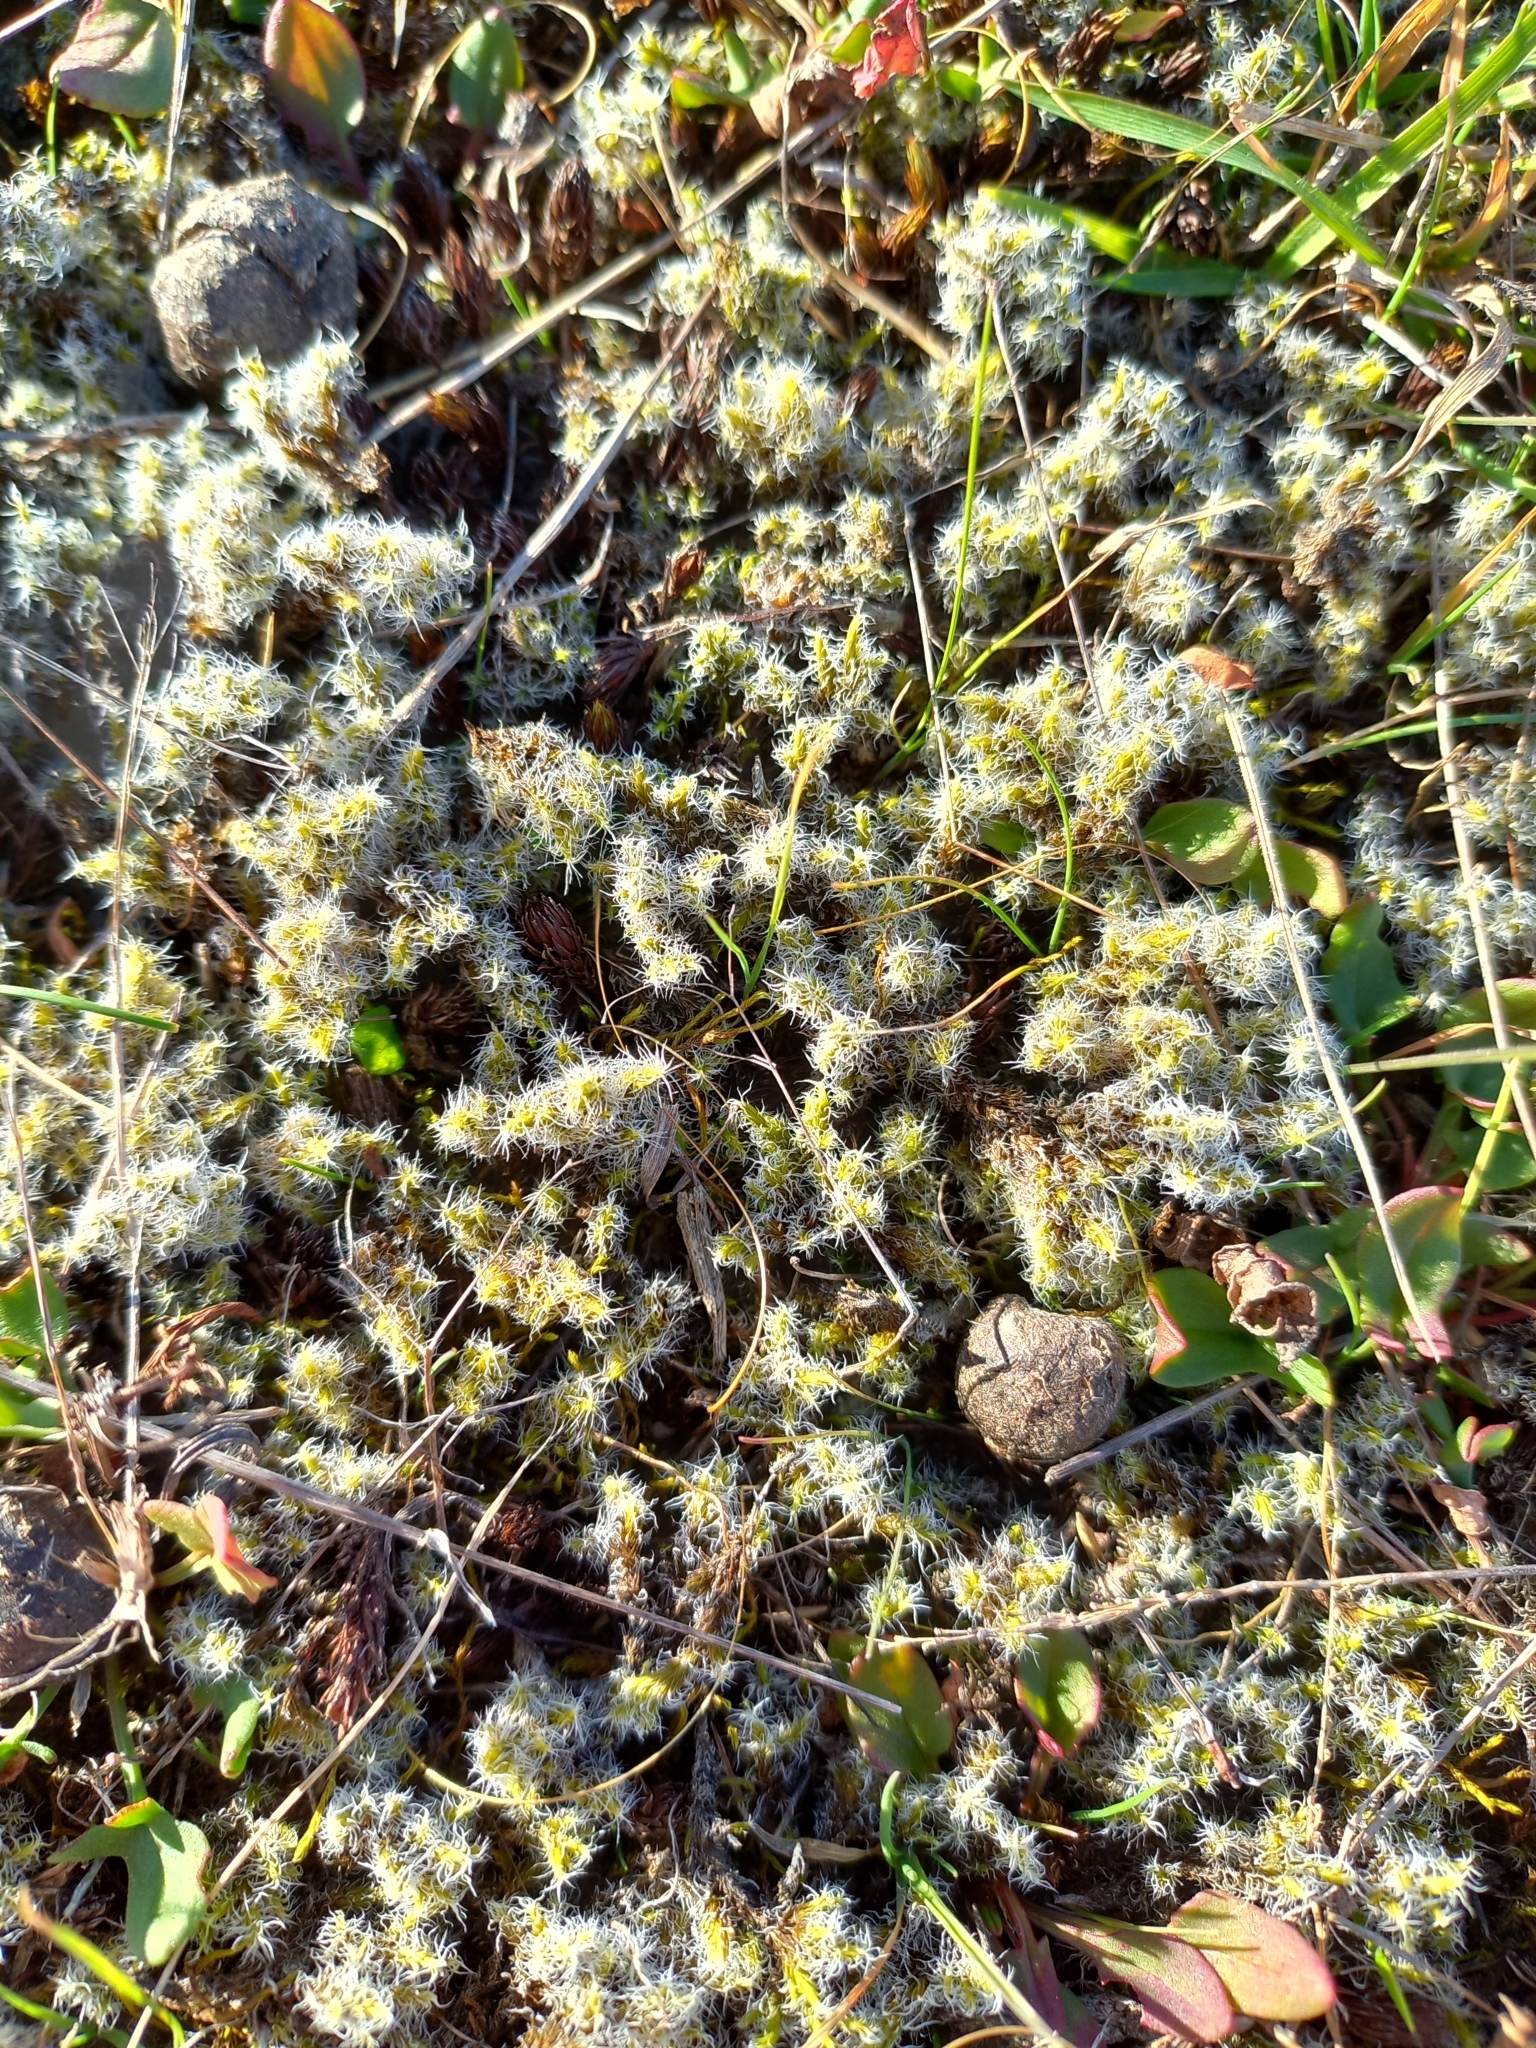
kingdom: Plantae
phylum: Bryophyta
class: Bryopsida
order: Grimmiales
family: Grimmiaceae
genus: Racomitrium
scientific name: Racomitrium lanuginosum
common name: Hoary rock moss
